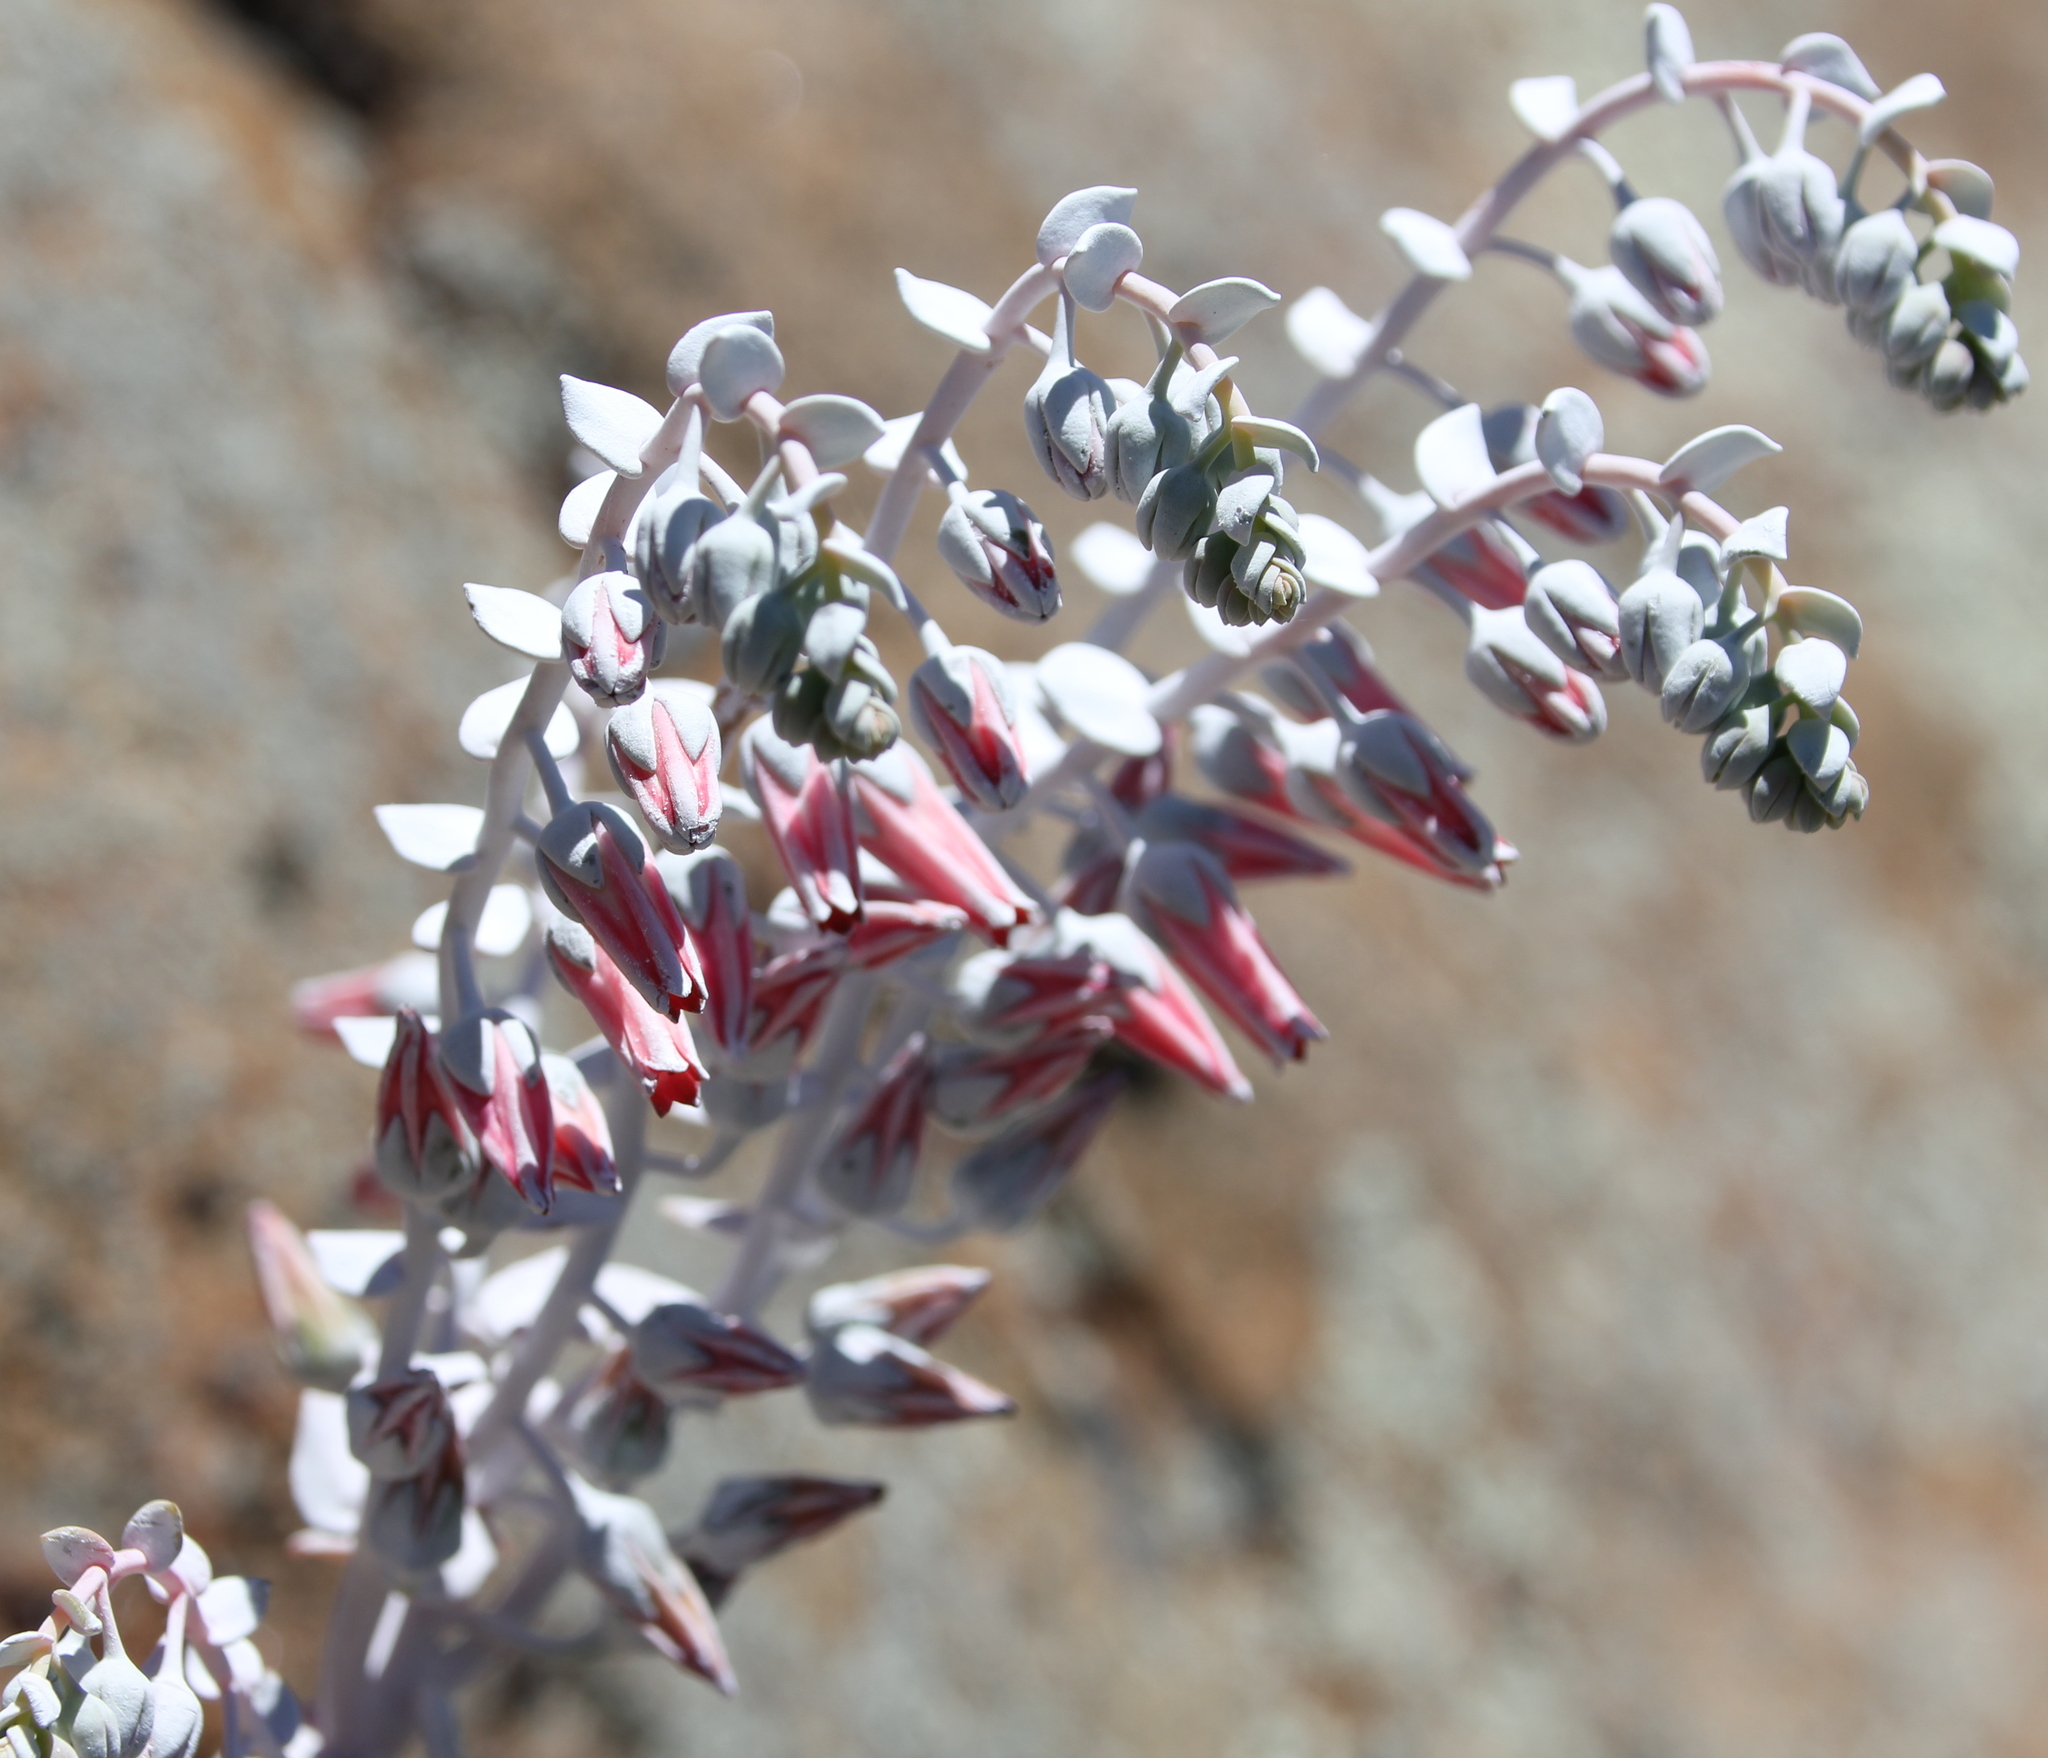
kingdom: Plantae
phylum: Tracheophyta
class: Magnoliopsida
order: Saxifragales
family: Crassulaceae
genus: Dudleya
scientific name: Dudleya pulverulenta
